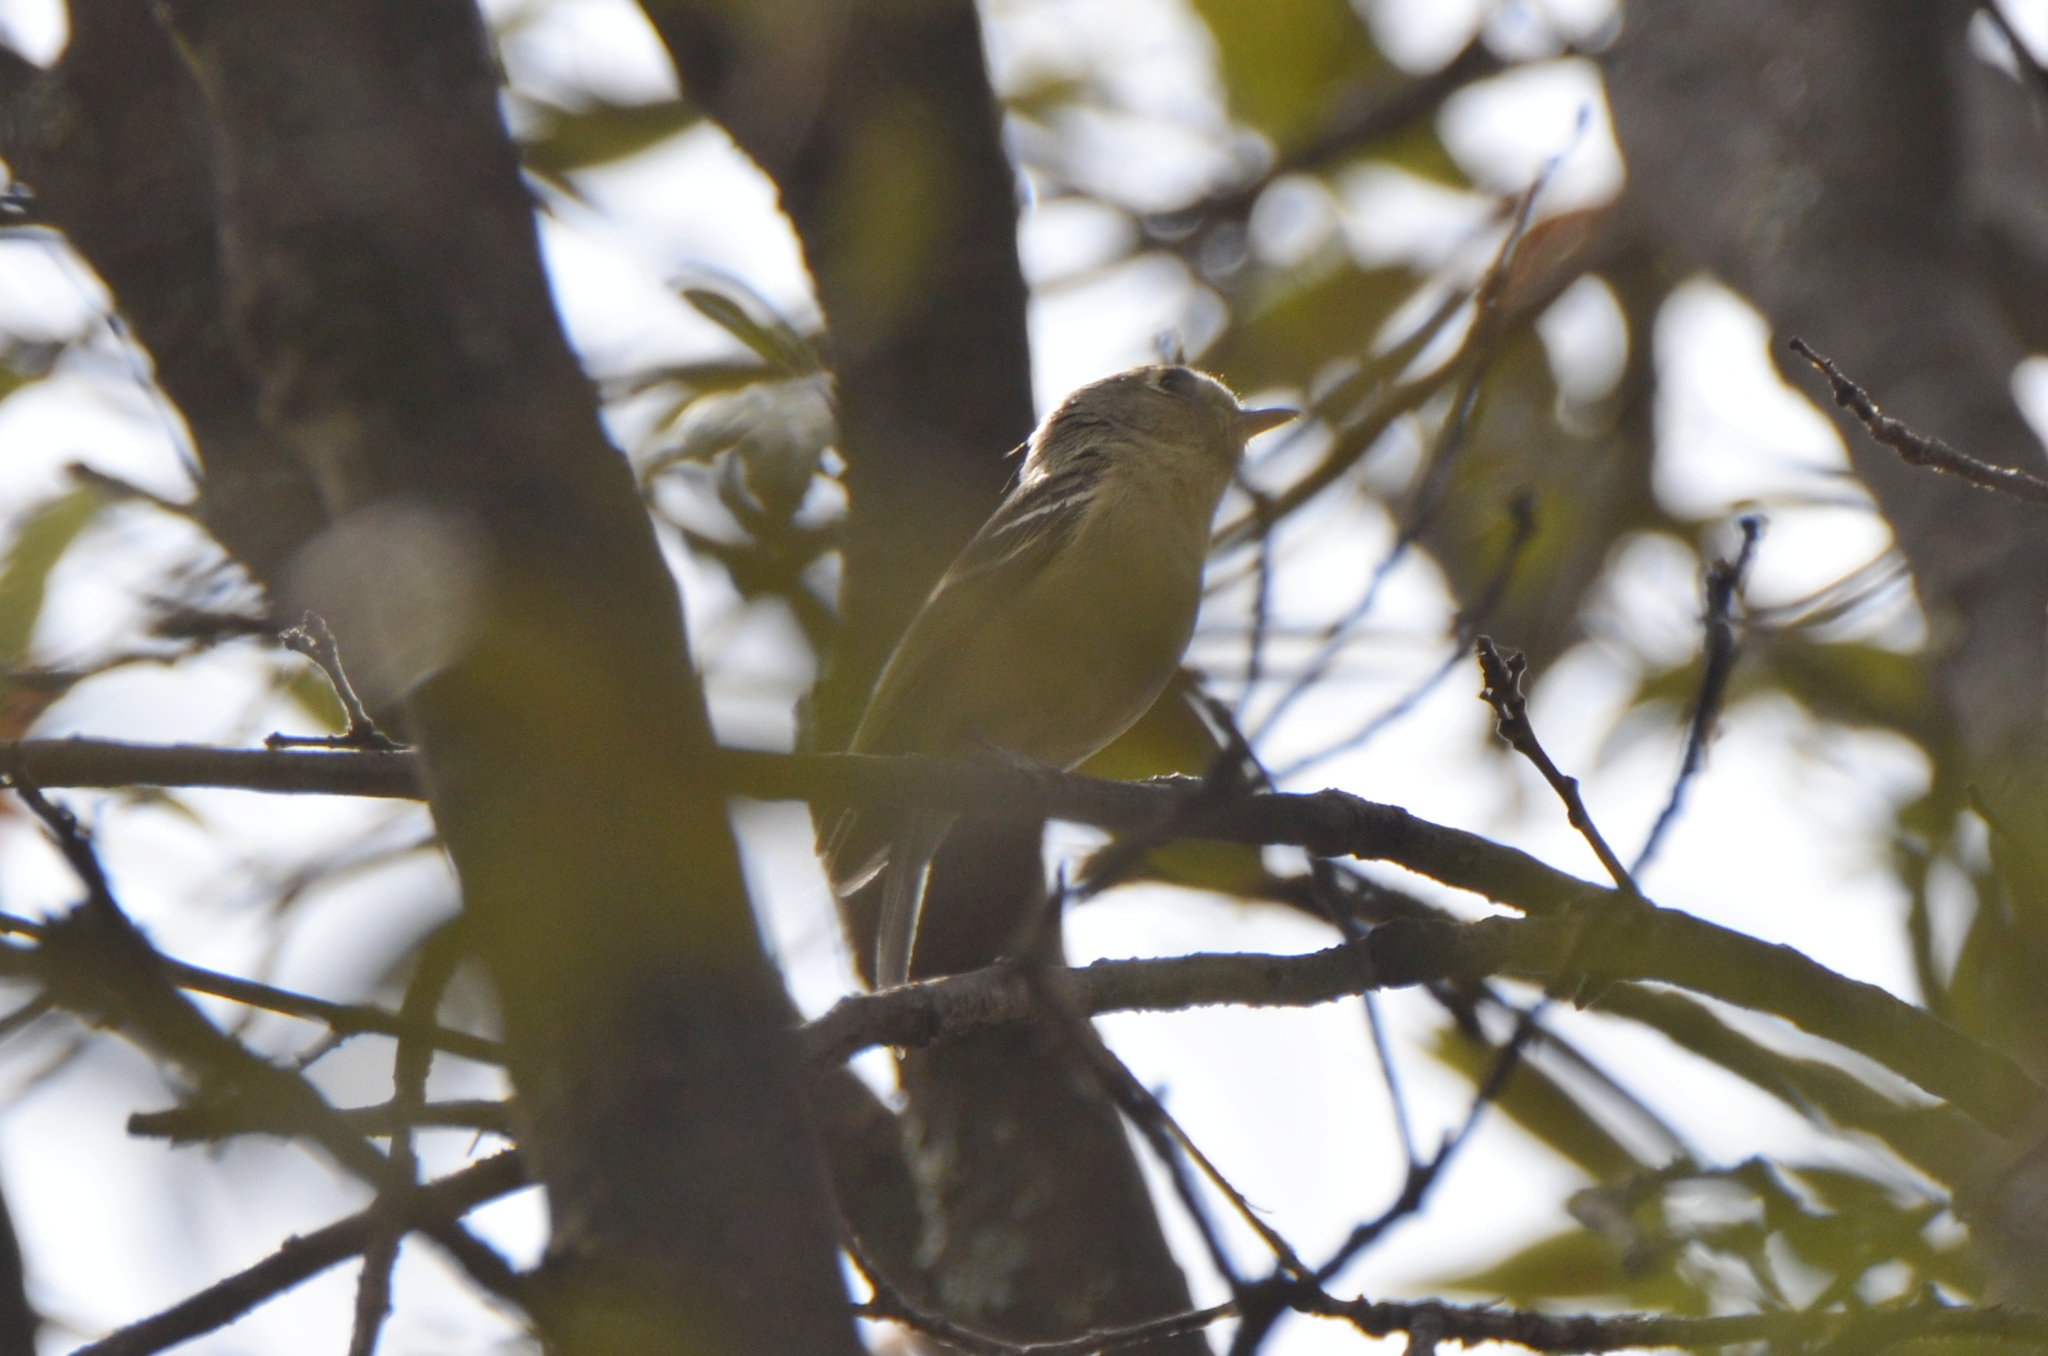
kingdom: Animalia
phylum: Chordata
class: Aves
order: Passeriformes
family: Vireonidae
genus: Vireo
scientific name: Vireo huttoni
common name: Hutton's vireo
